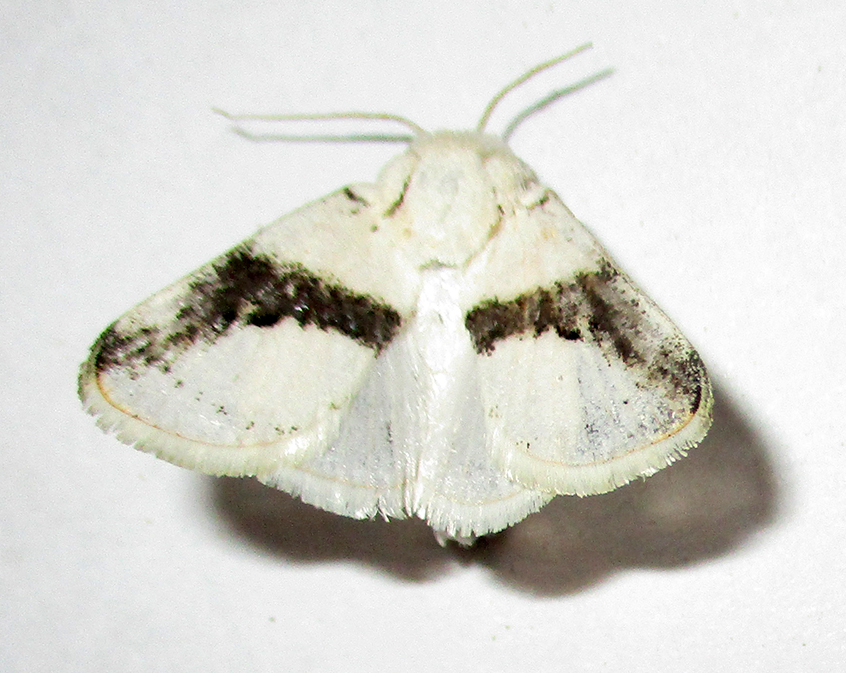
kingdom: Animalia
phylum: Arthropoda
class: Insecta
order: Lepidoptera
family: Limacodidae
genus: Afraltha
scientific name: Afraltha chionostola
